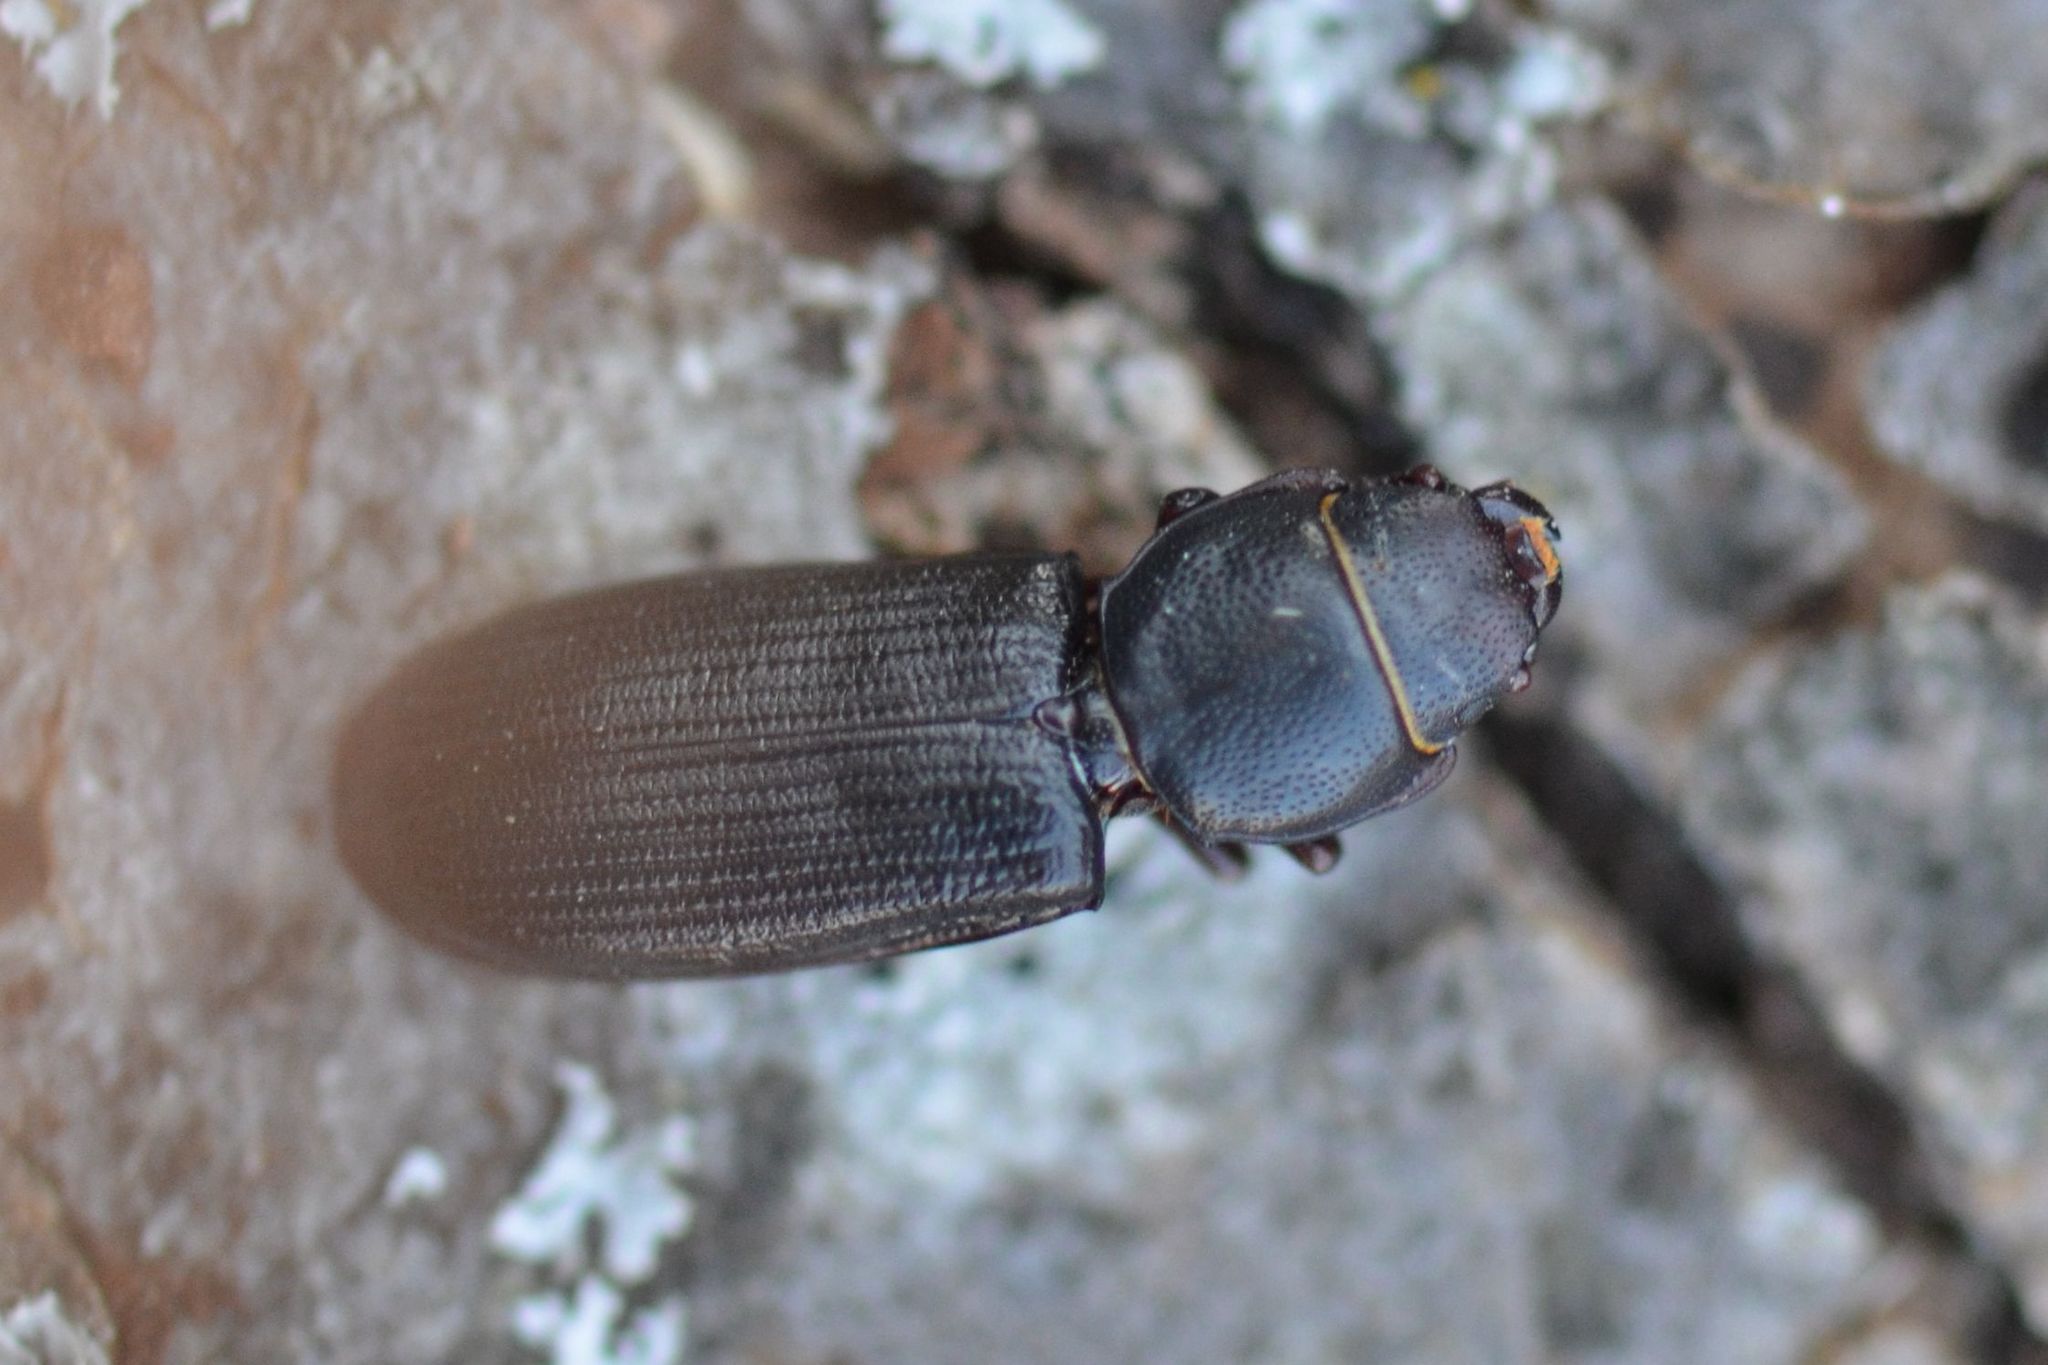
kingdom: Animalia
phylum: Arthropoda
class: Insecta
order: Coleoptera
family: Trogossitidae
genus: Tenebroides
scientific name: Tenebroides fuscus
